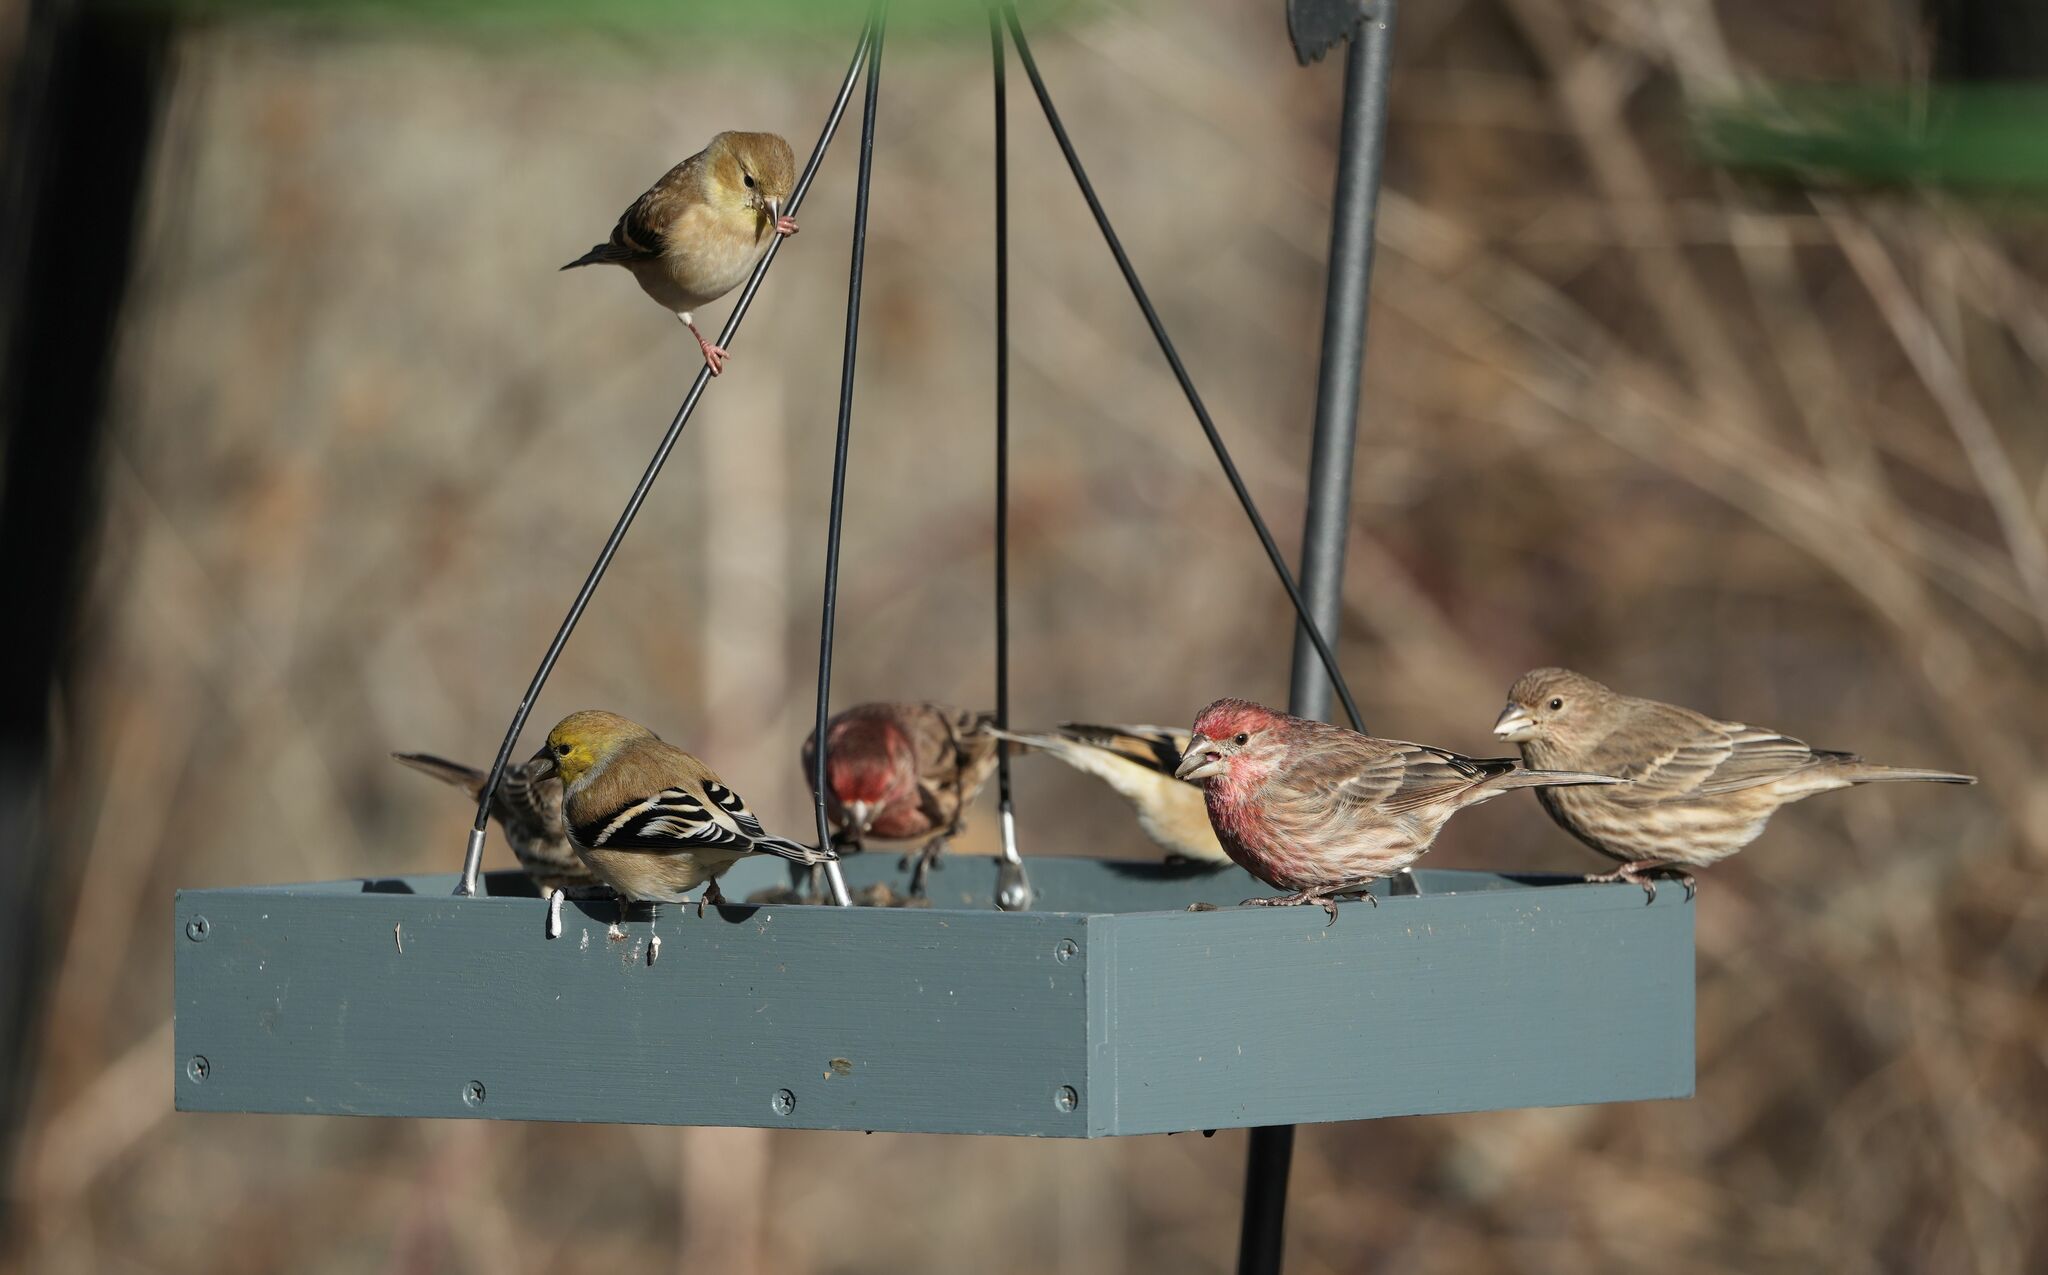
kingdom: Animalia
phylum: Chordata
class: Aves
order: Passeriformes
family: Fringillidae
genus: Spinus
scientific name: Spinus tristis
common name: American goldfinch
